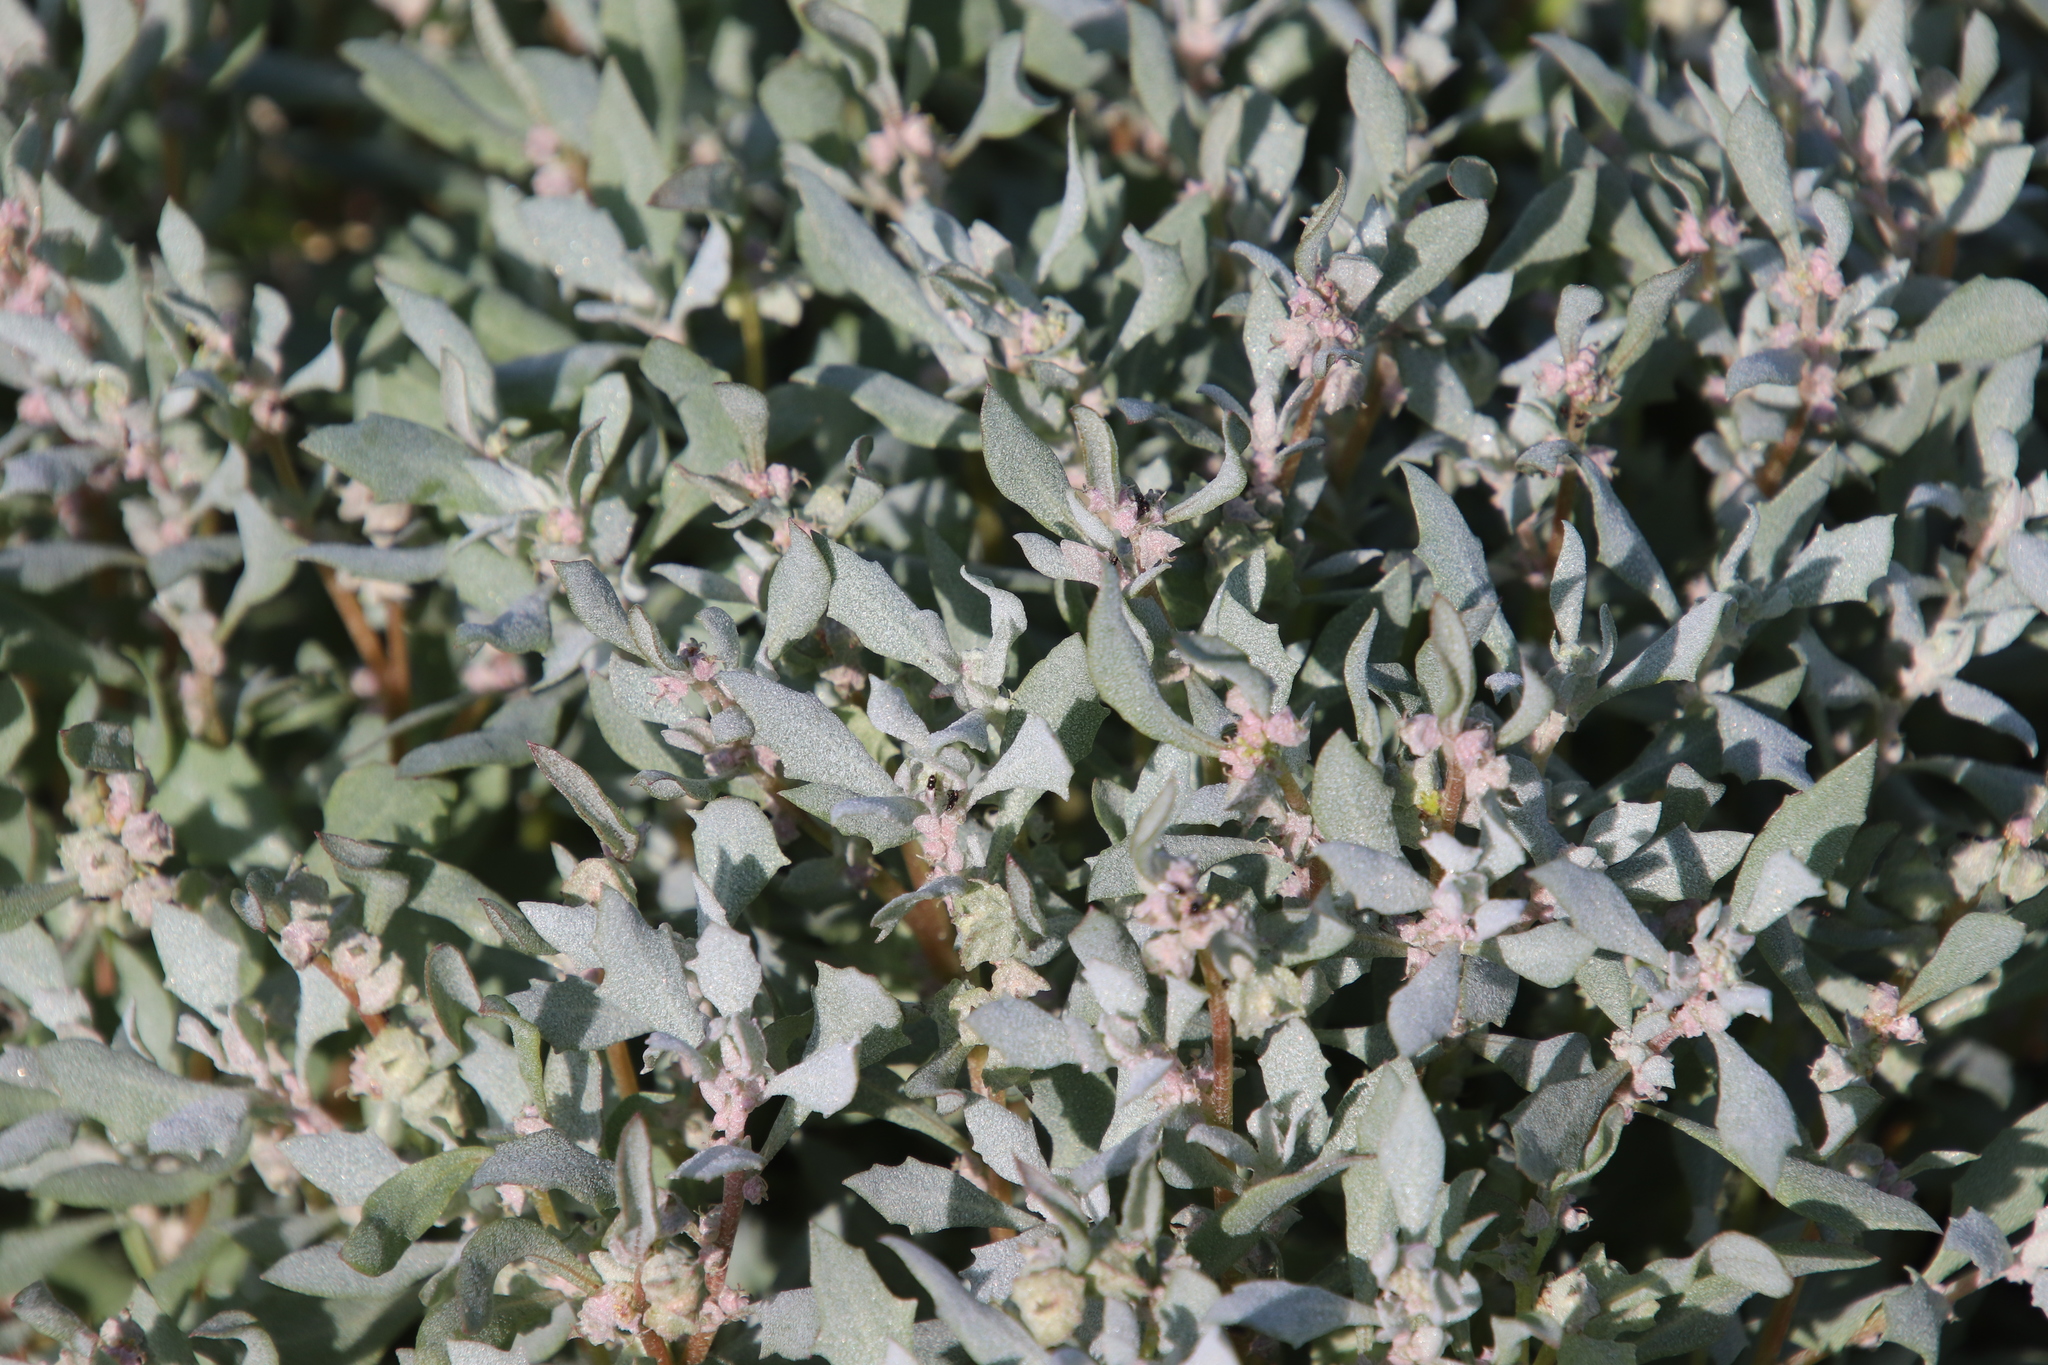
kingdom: Plantae
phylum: Tracheophyta
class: Magnoliopsida
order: Caryophyllales
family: Amaranthaceae
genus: Atriplex
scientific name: Atriplex lindleyi
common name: Lindley's saltbush
